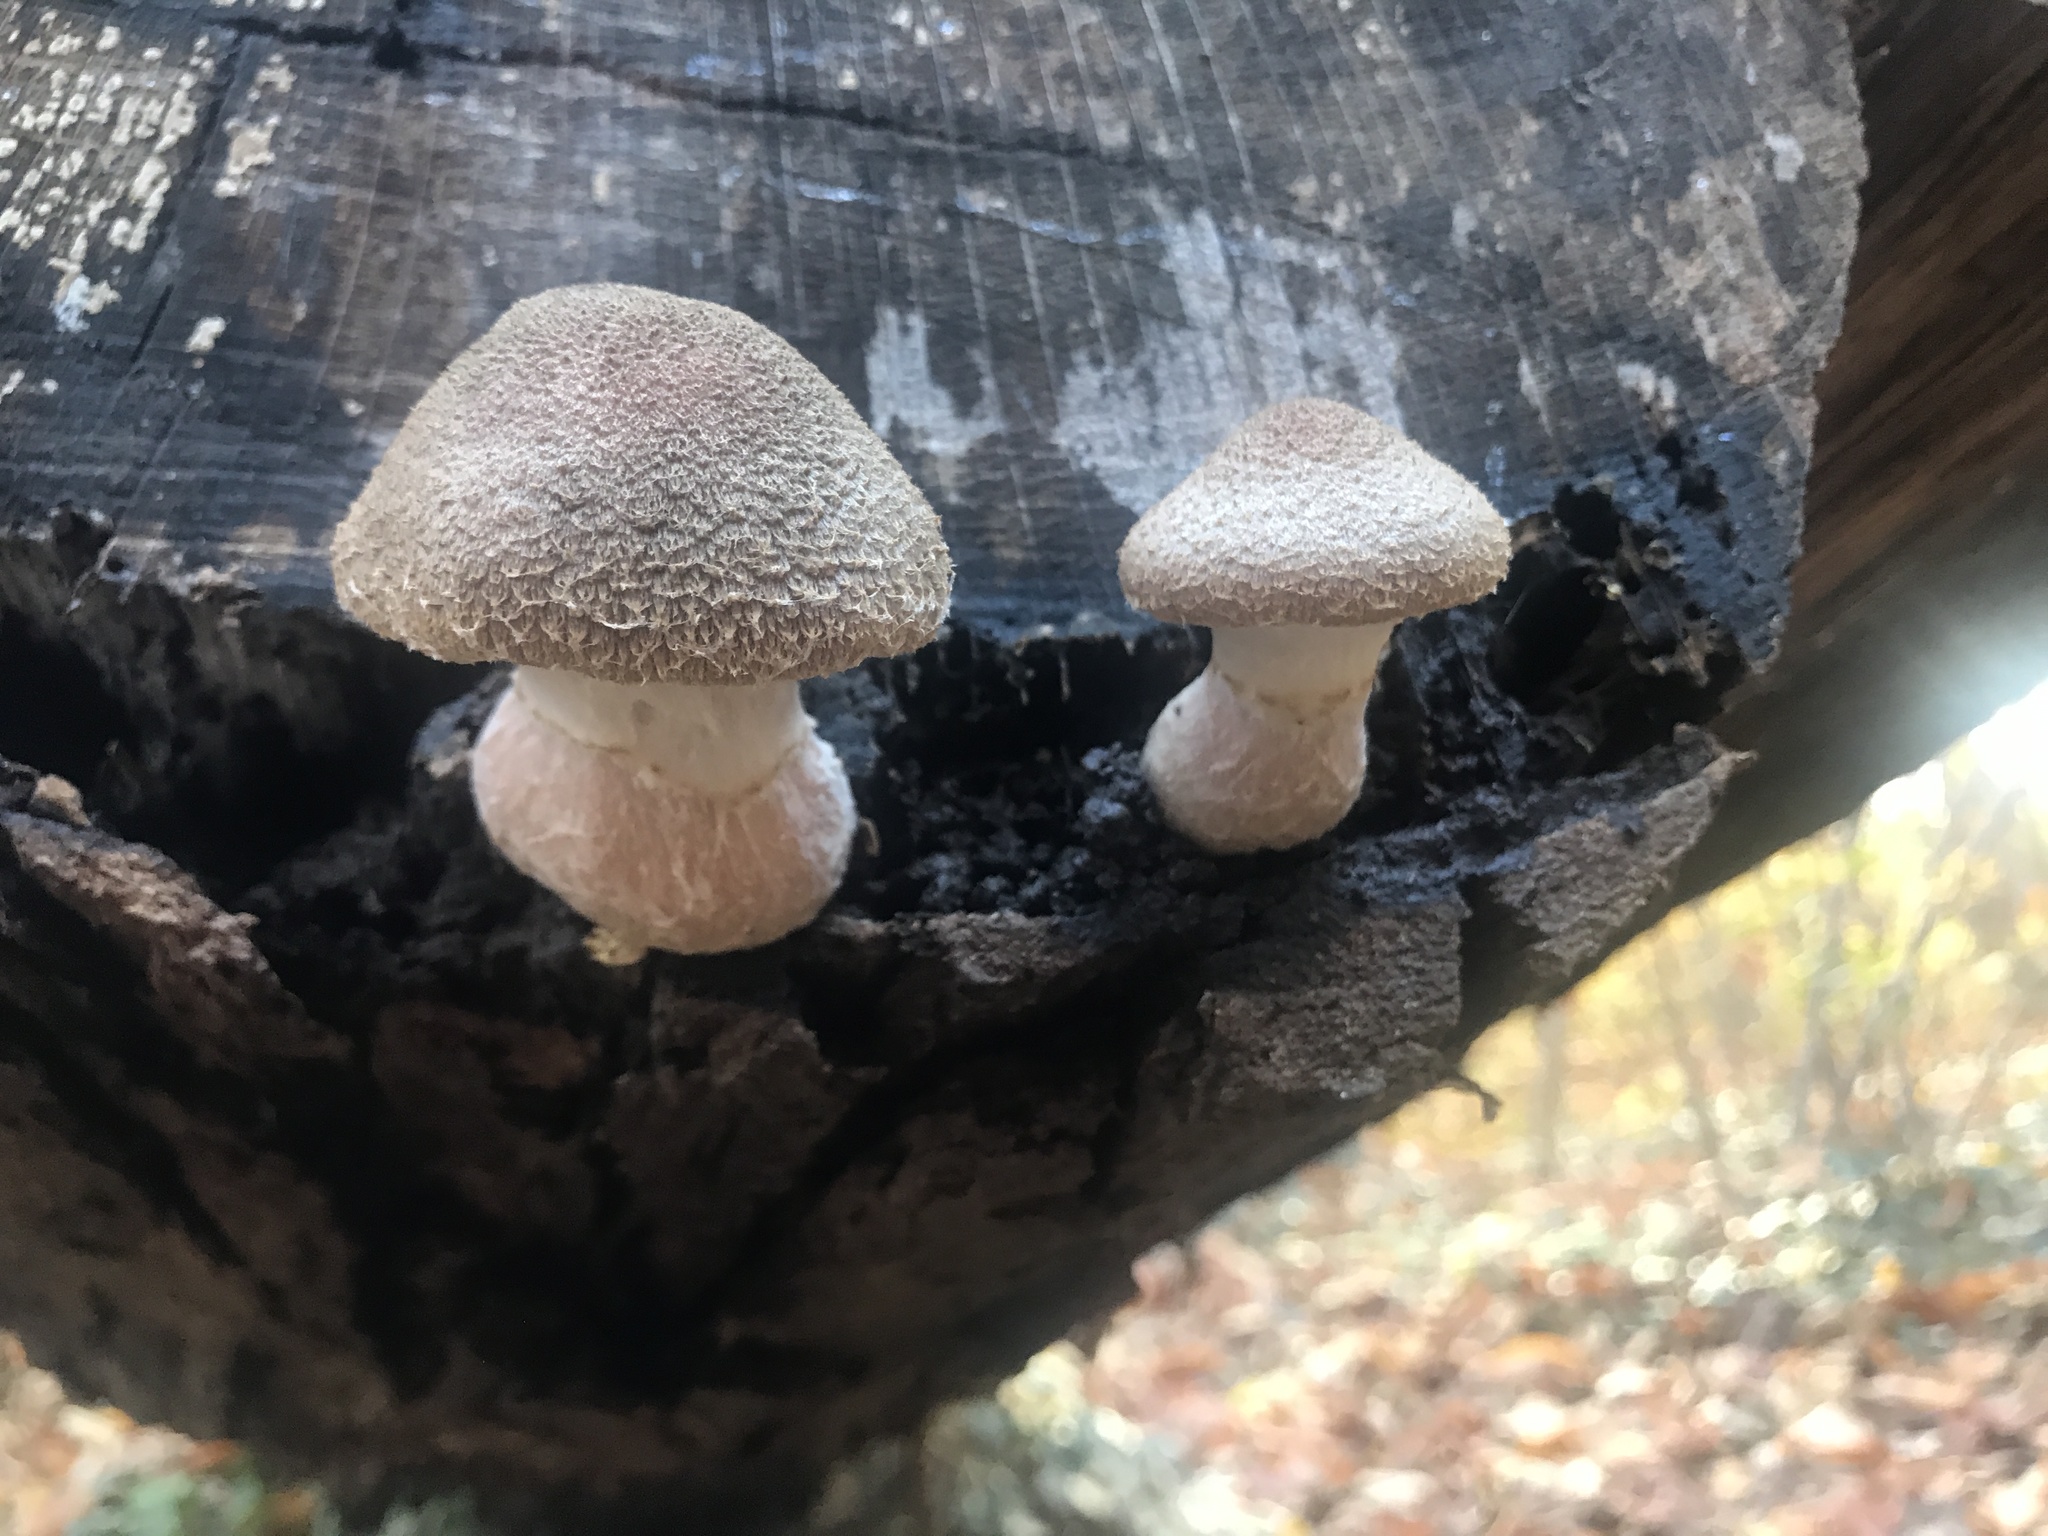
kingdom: Fungi
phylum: Basidiomycota
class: Agaricomycetes
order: Agaricales
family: Physalacriaceae
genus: Armillaria
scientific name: Armillaria gallica
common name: Bulbous honey fungus
